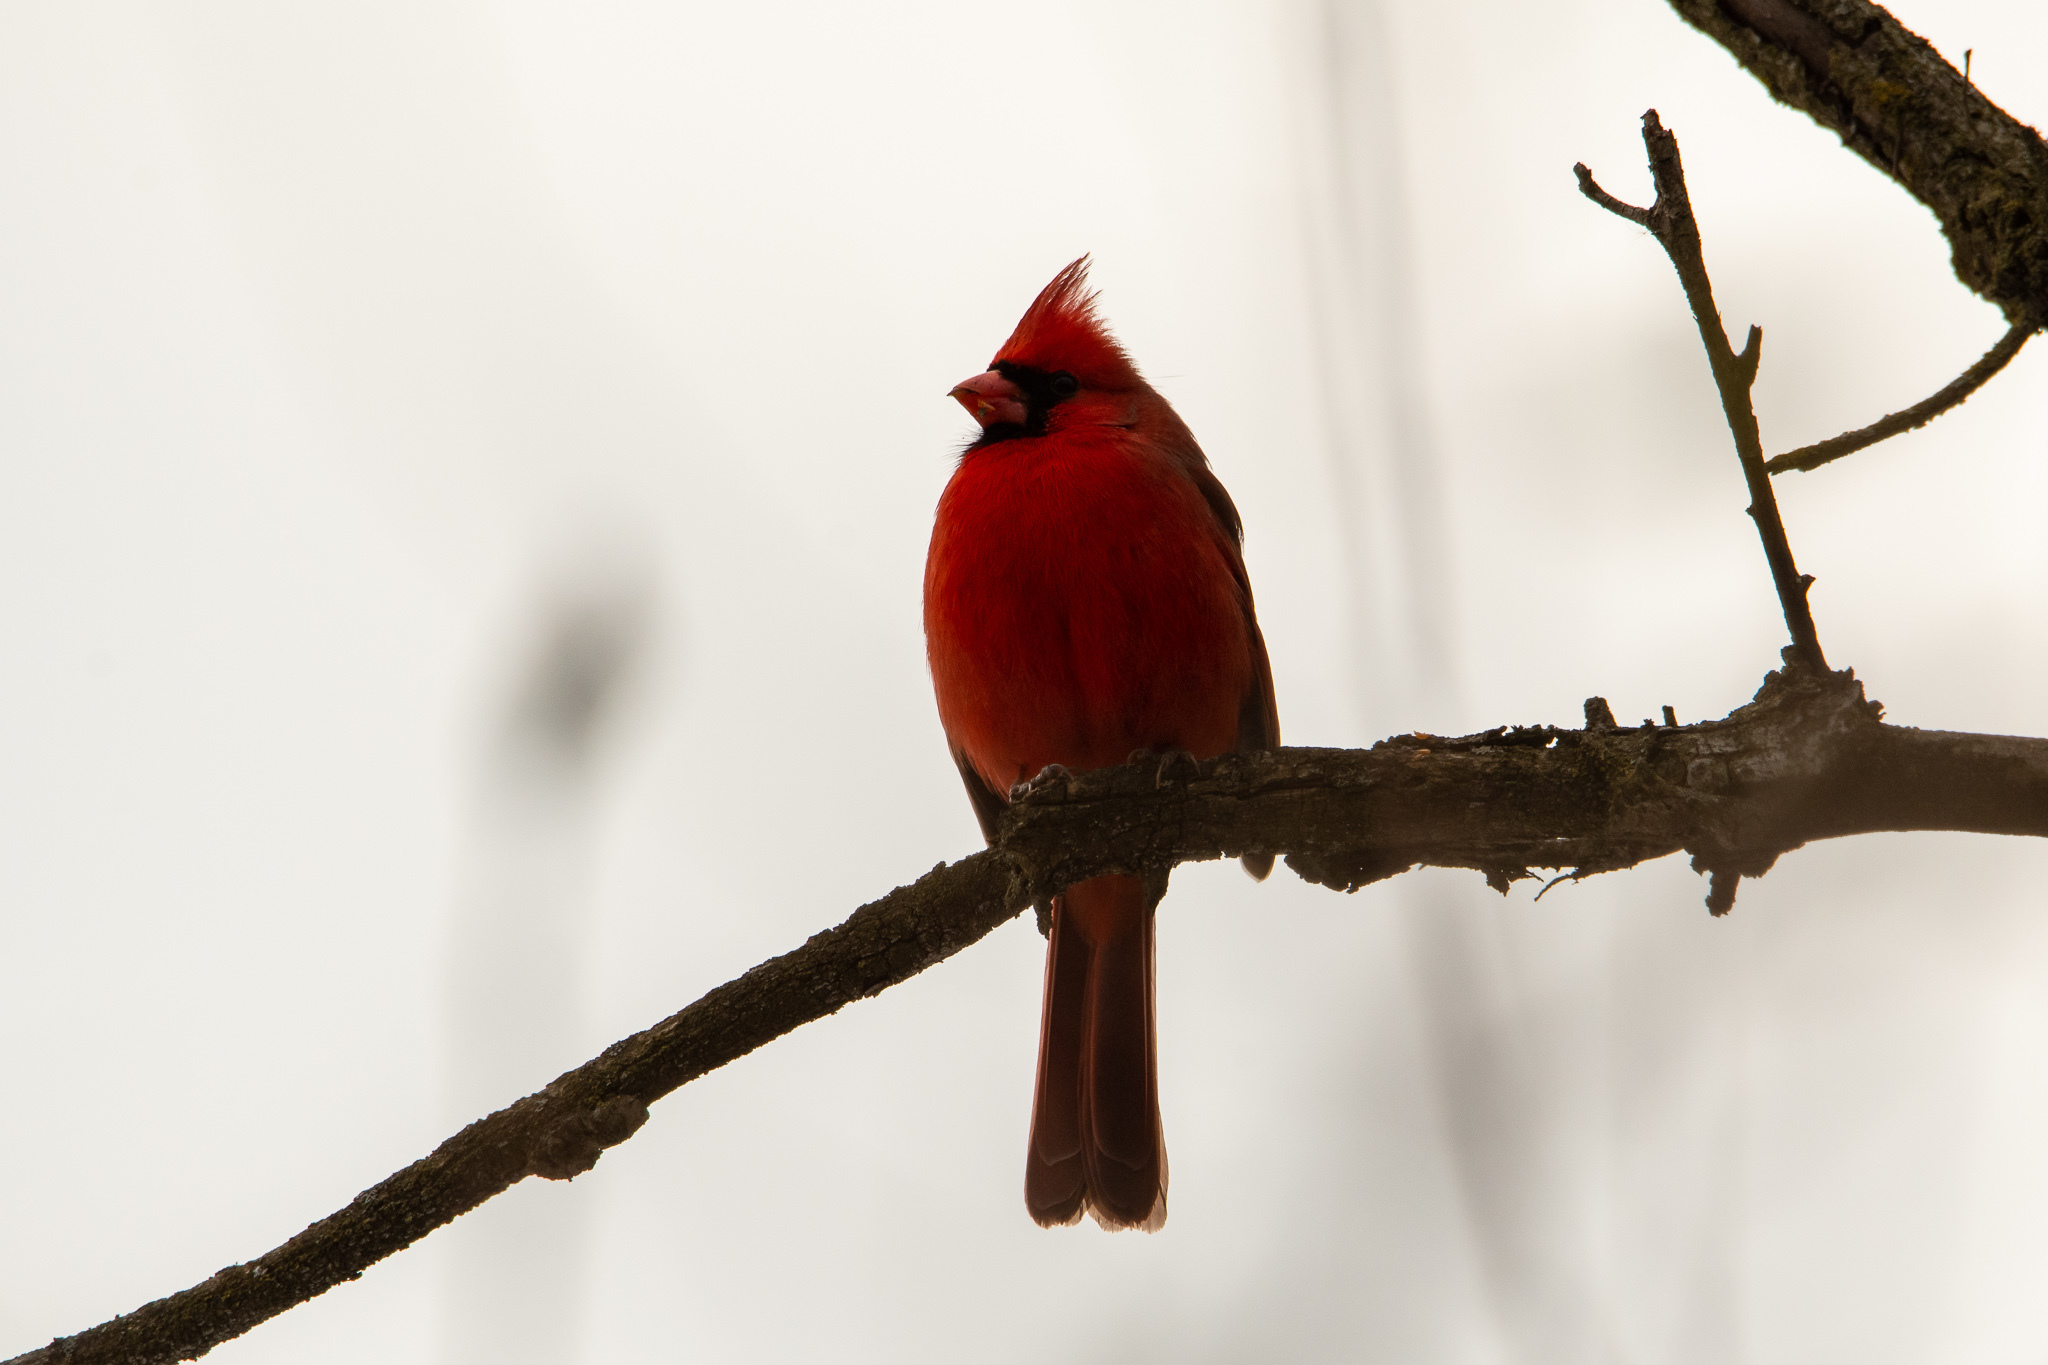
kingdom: Animalia
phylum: Chordata
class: Aves
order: Passeriformes
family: Cardinalidae
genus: Cardinalis
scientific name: Cardinalis cardinalis
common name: Northern cardinal
